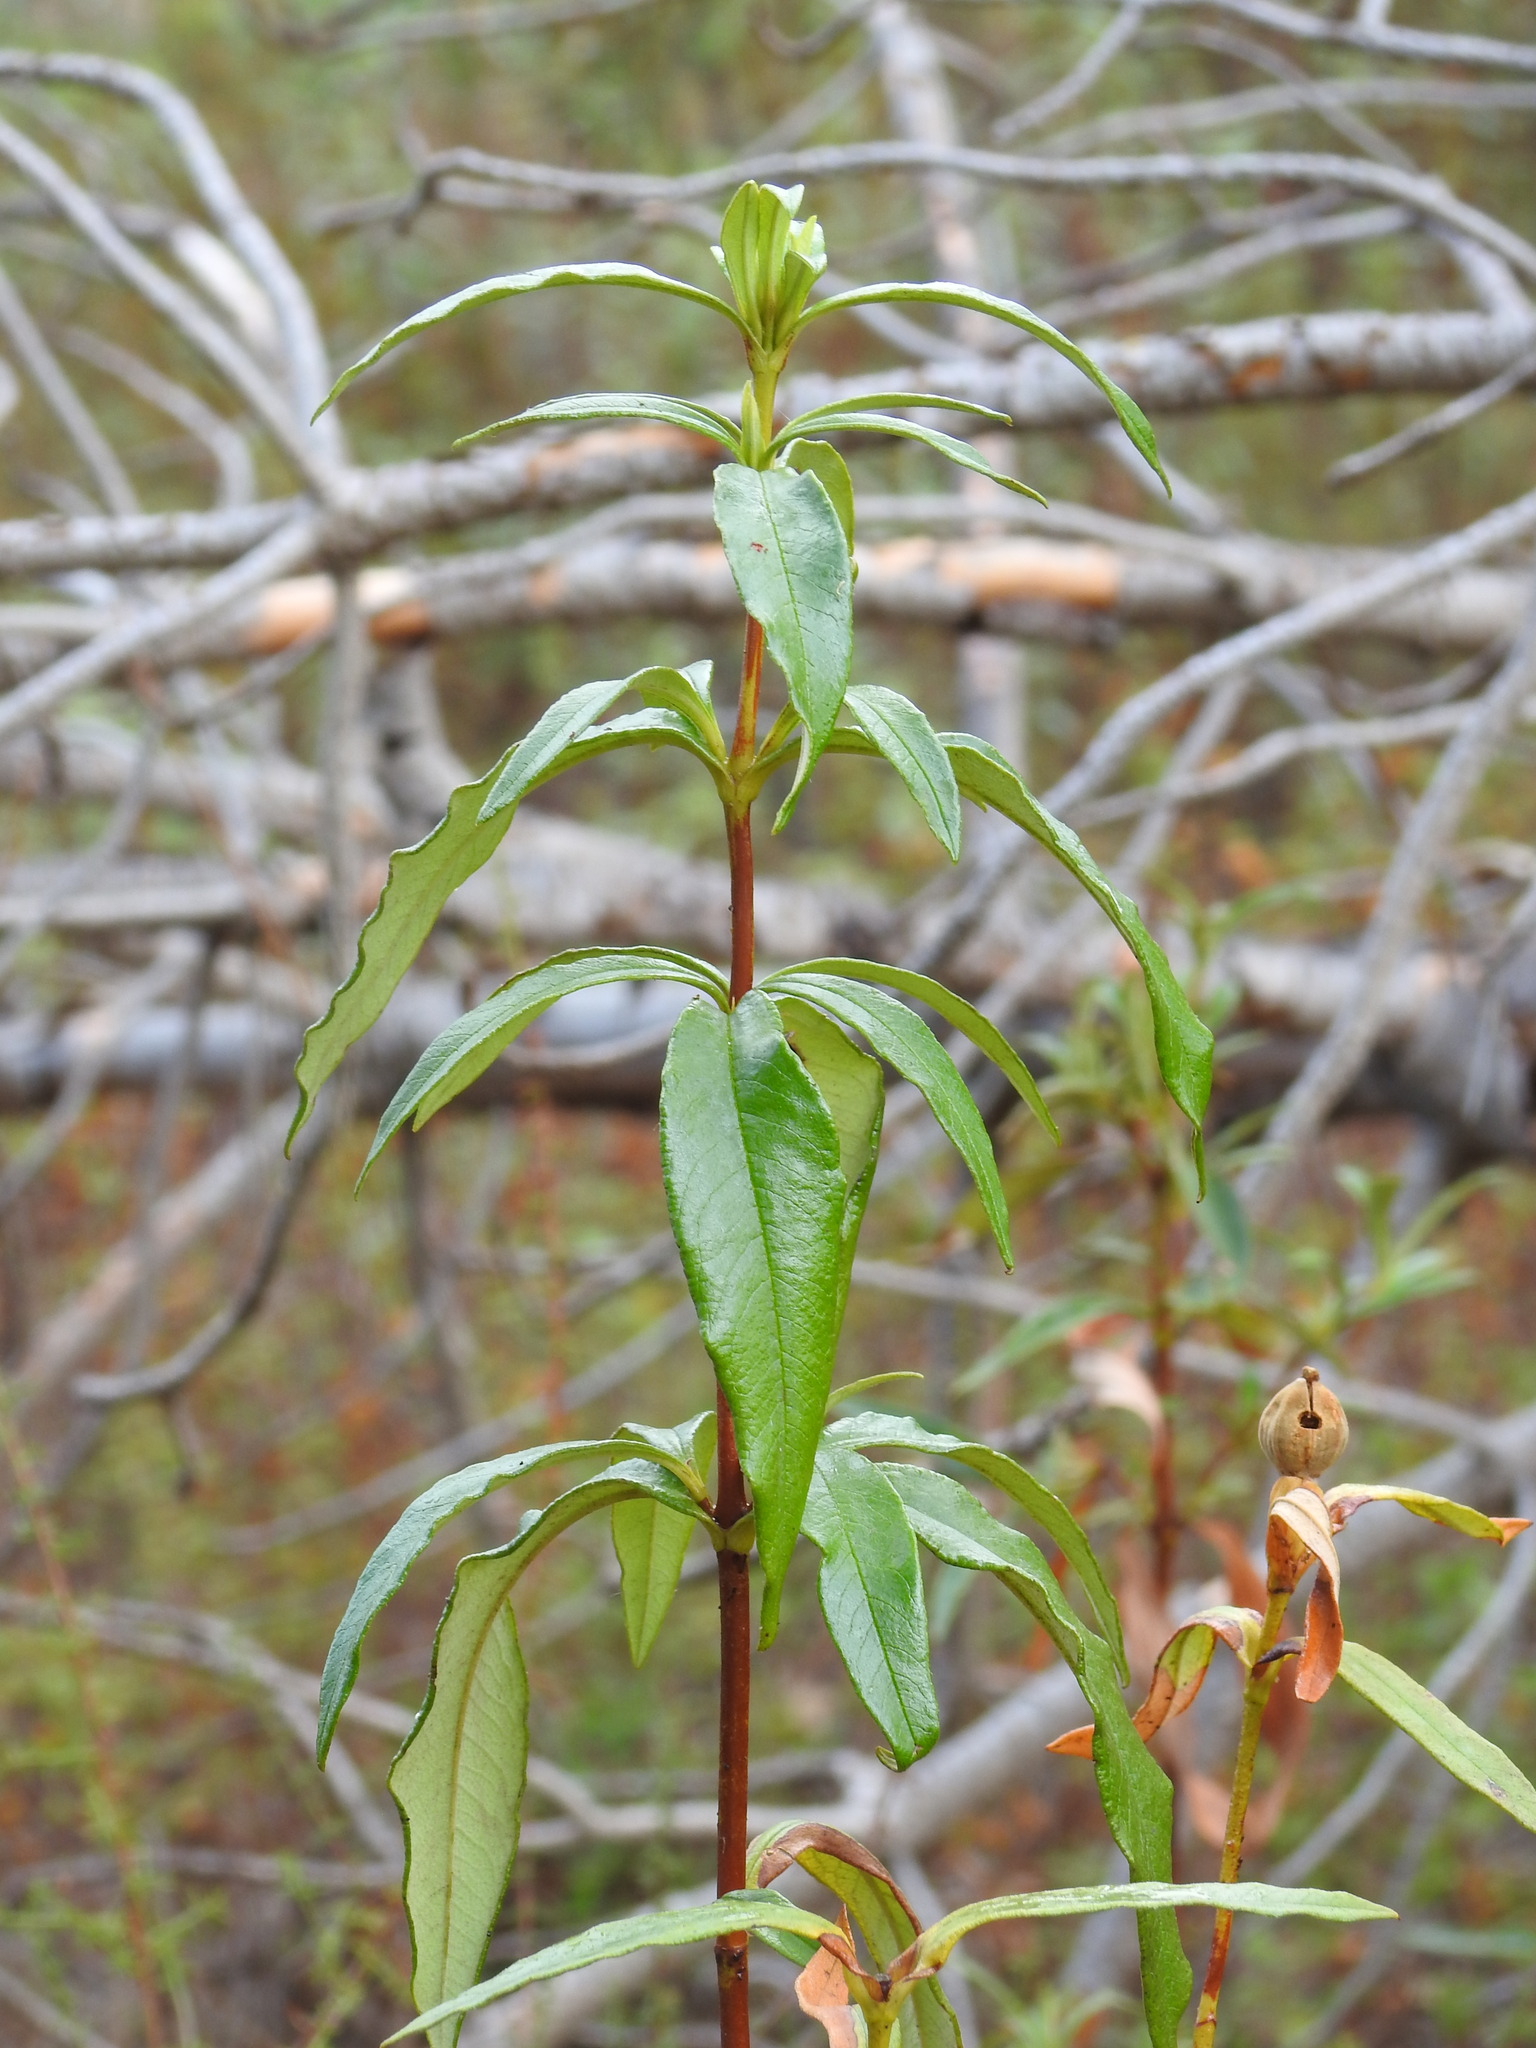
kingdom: Plantae
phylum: Tracheophyta
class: Magnoliopsida
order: Malvales
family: Cistaceae
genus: Cistus
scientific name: Cistus ladanifer
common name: Common gum cistus
